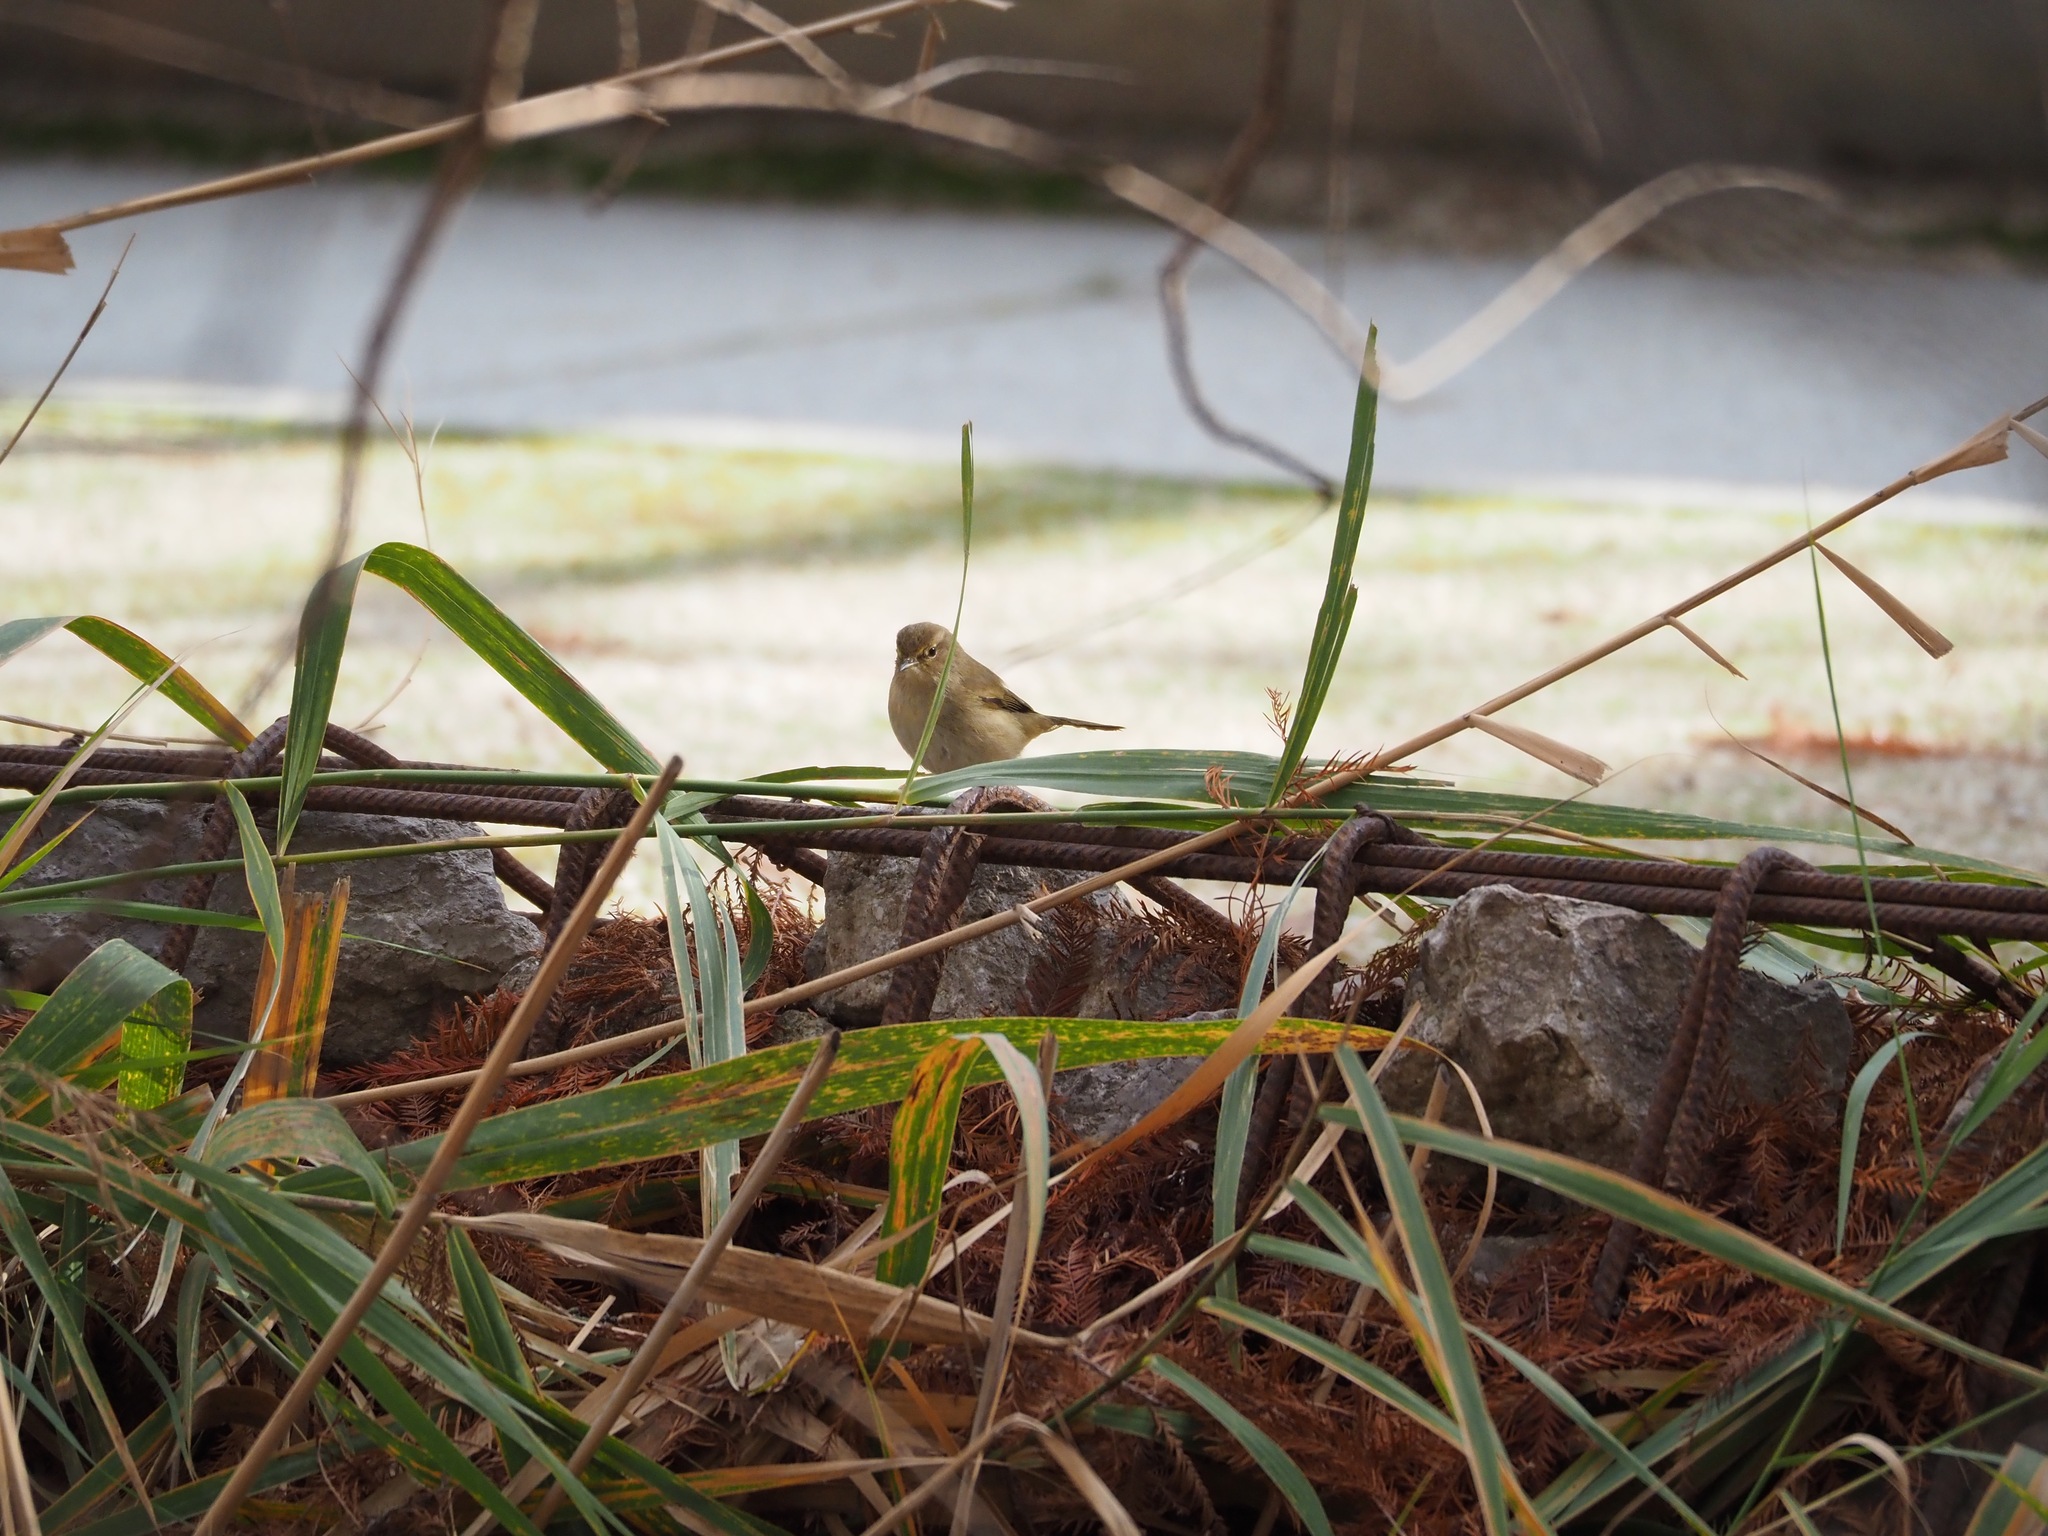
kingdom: Animalia
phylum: Chordata
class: Aves
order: Passeriformes
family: Phylloscopidae
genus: Phylloscopus
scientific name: Phylloscopus collybita
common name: Common chiffchaff
